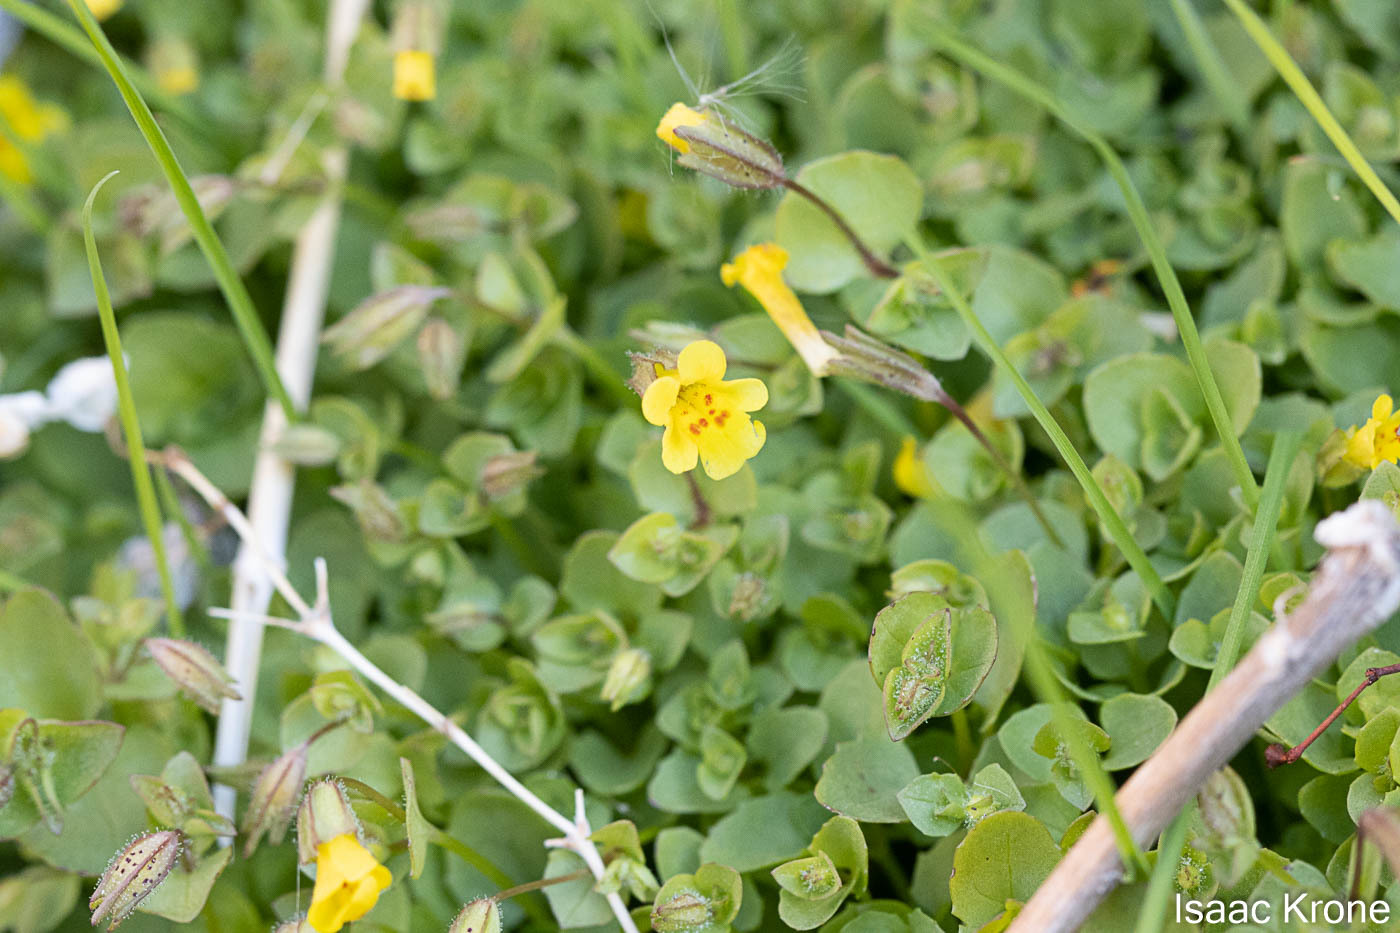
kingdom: Plantae
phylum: Tracheophyta
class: Magnoliopsida
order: Lamiales
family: Phrymaceae
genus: Erythranthe
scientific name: Erythranthe cordata
